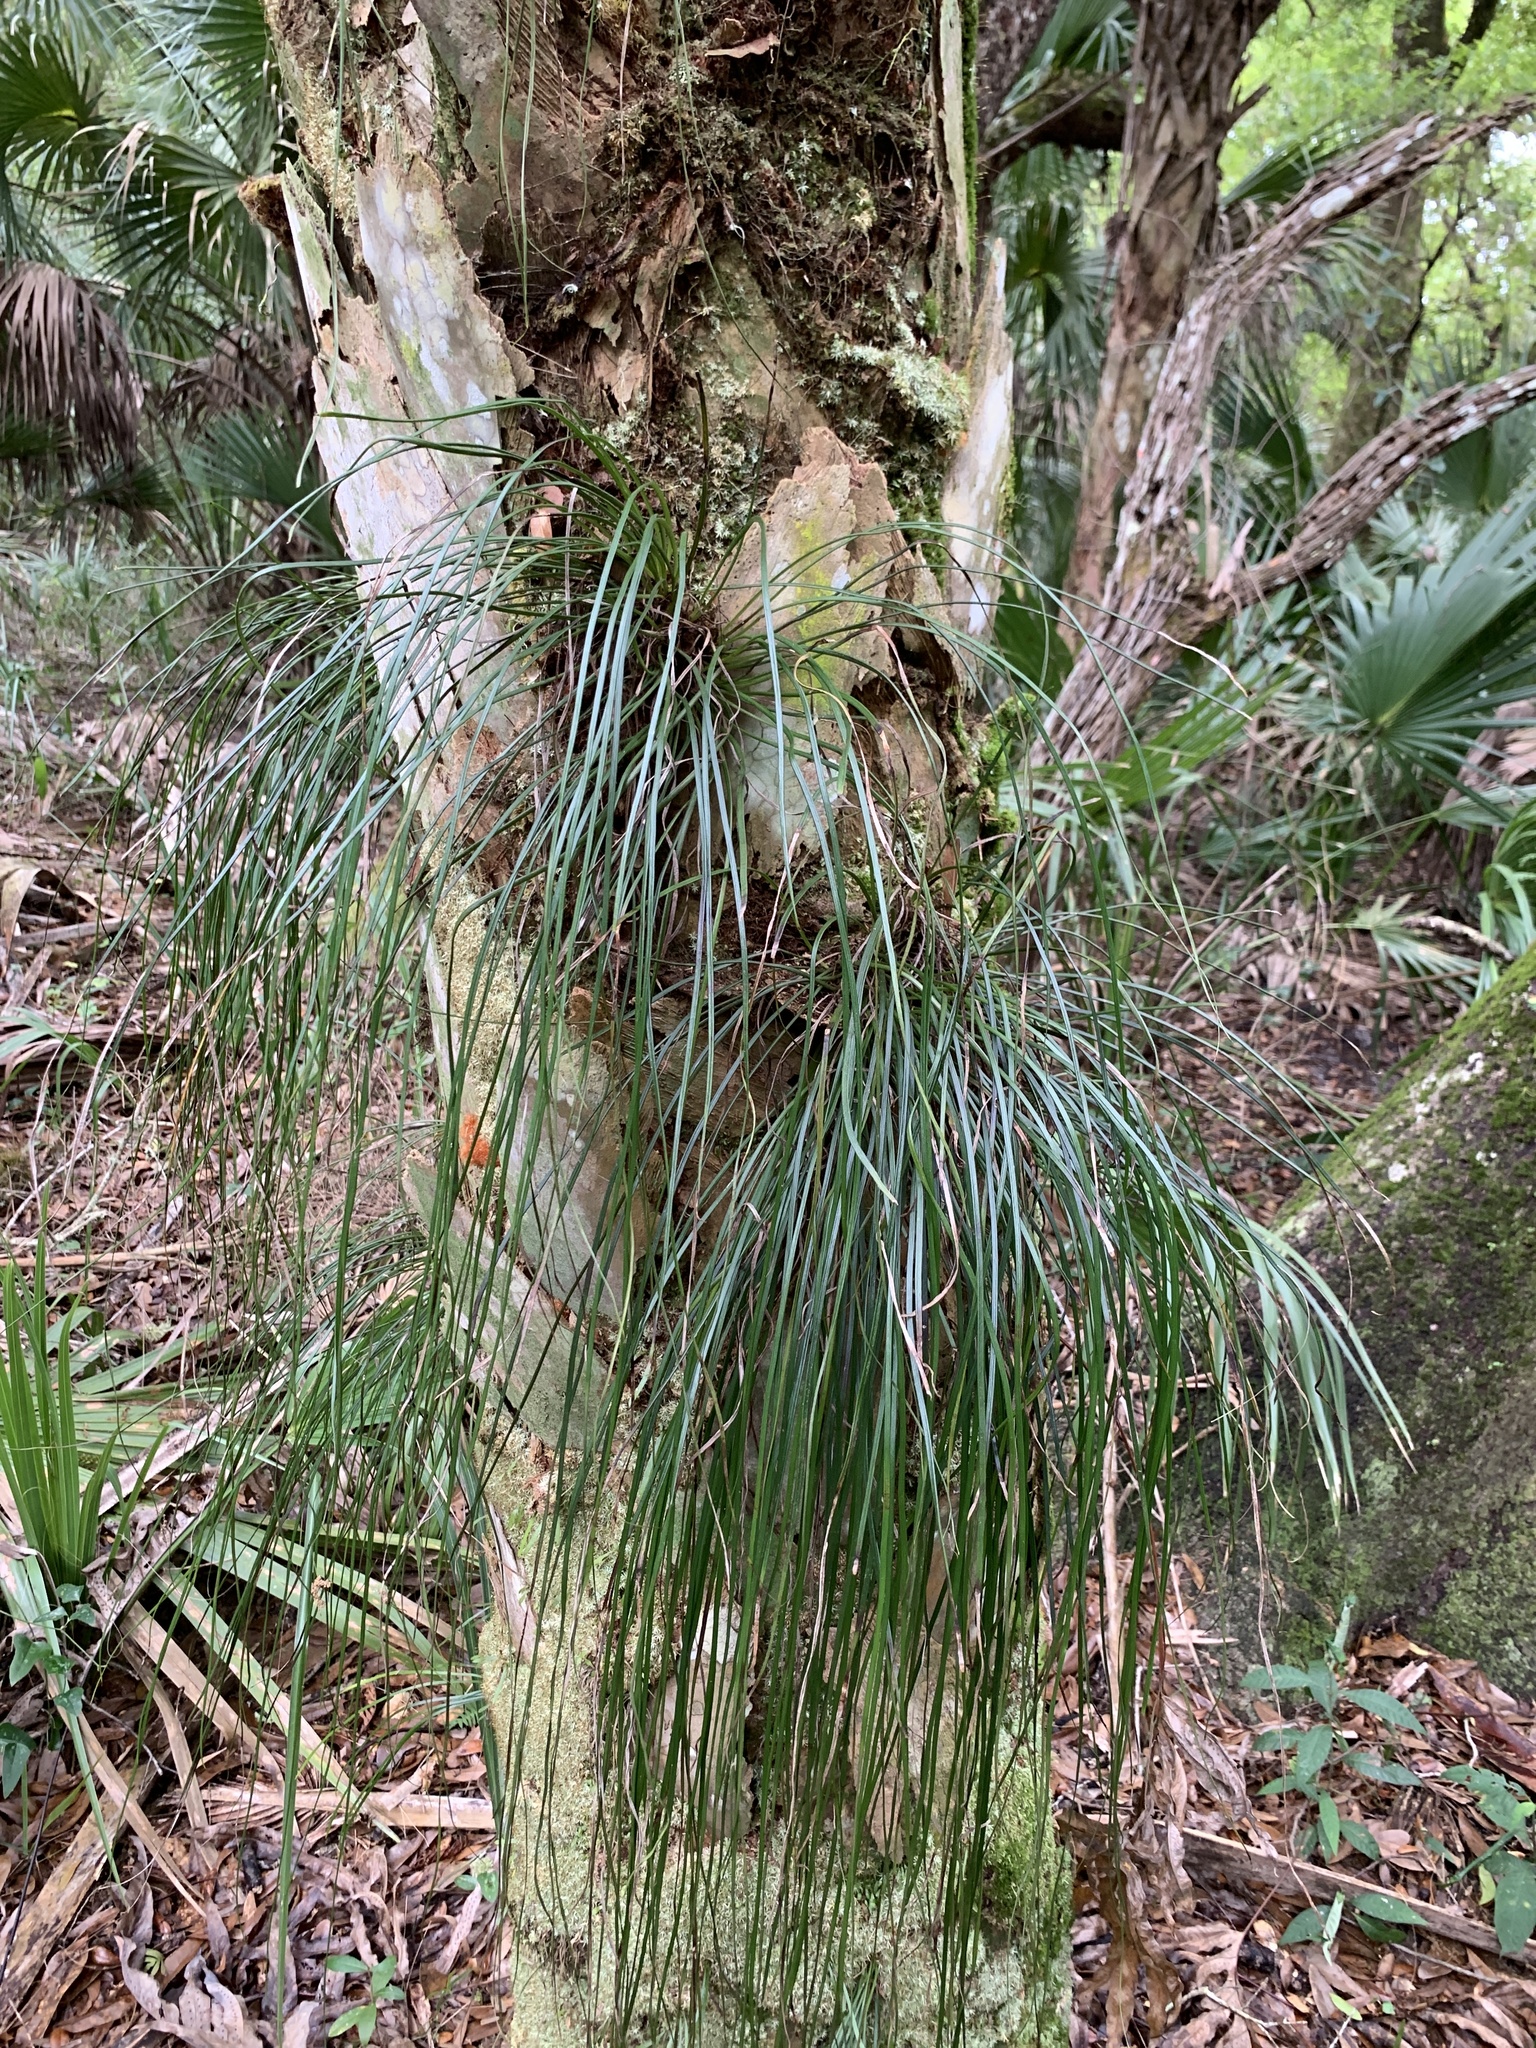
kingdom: Plantae
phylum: Tracheophyta
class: Polypodiopsida
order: Polypodiales
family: Pteridaceae
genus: Vittaria
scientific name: Vittaria lineata
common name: Shoestring fern
